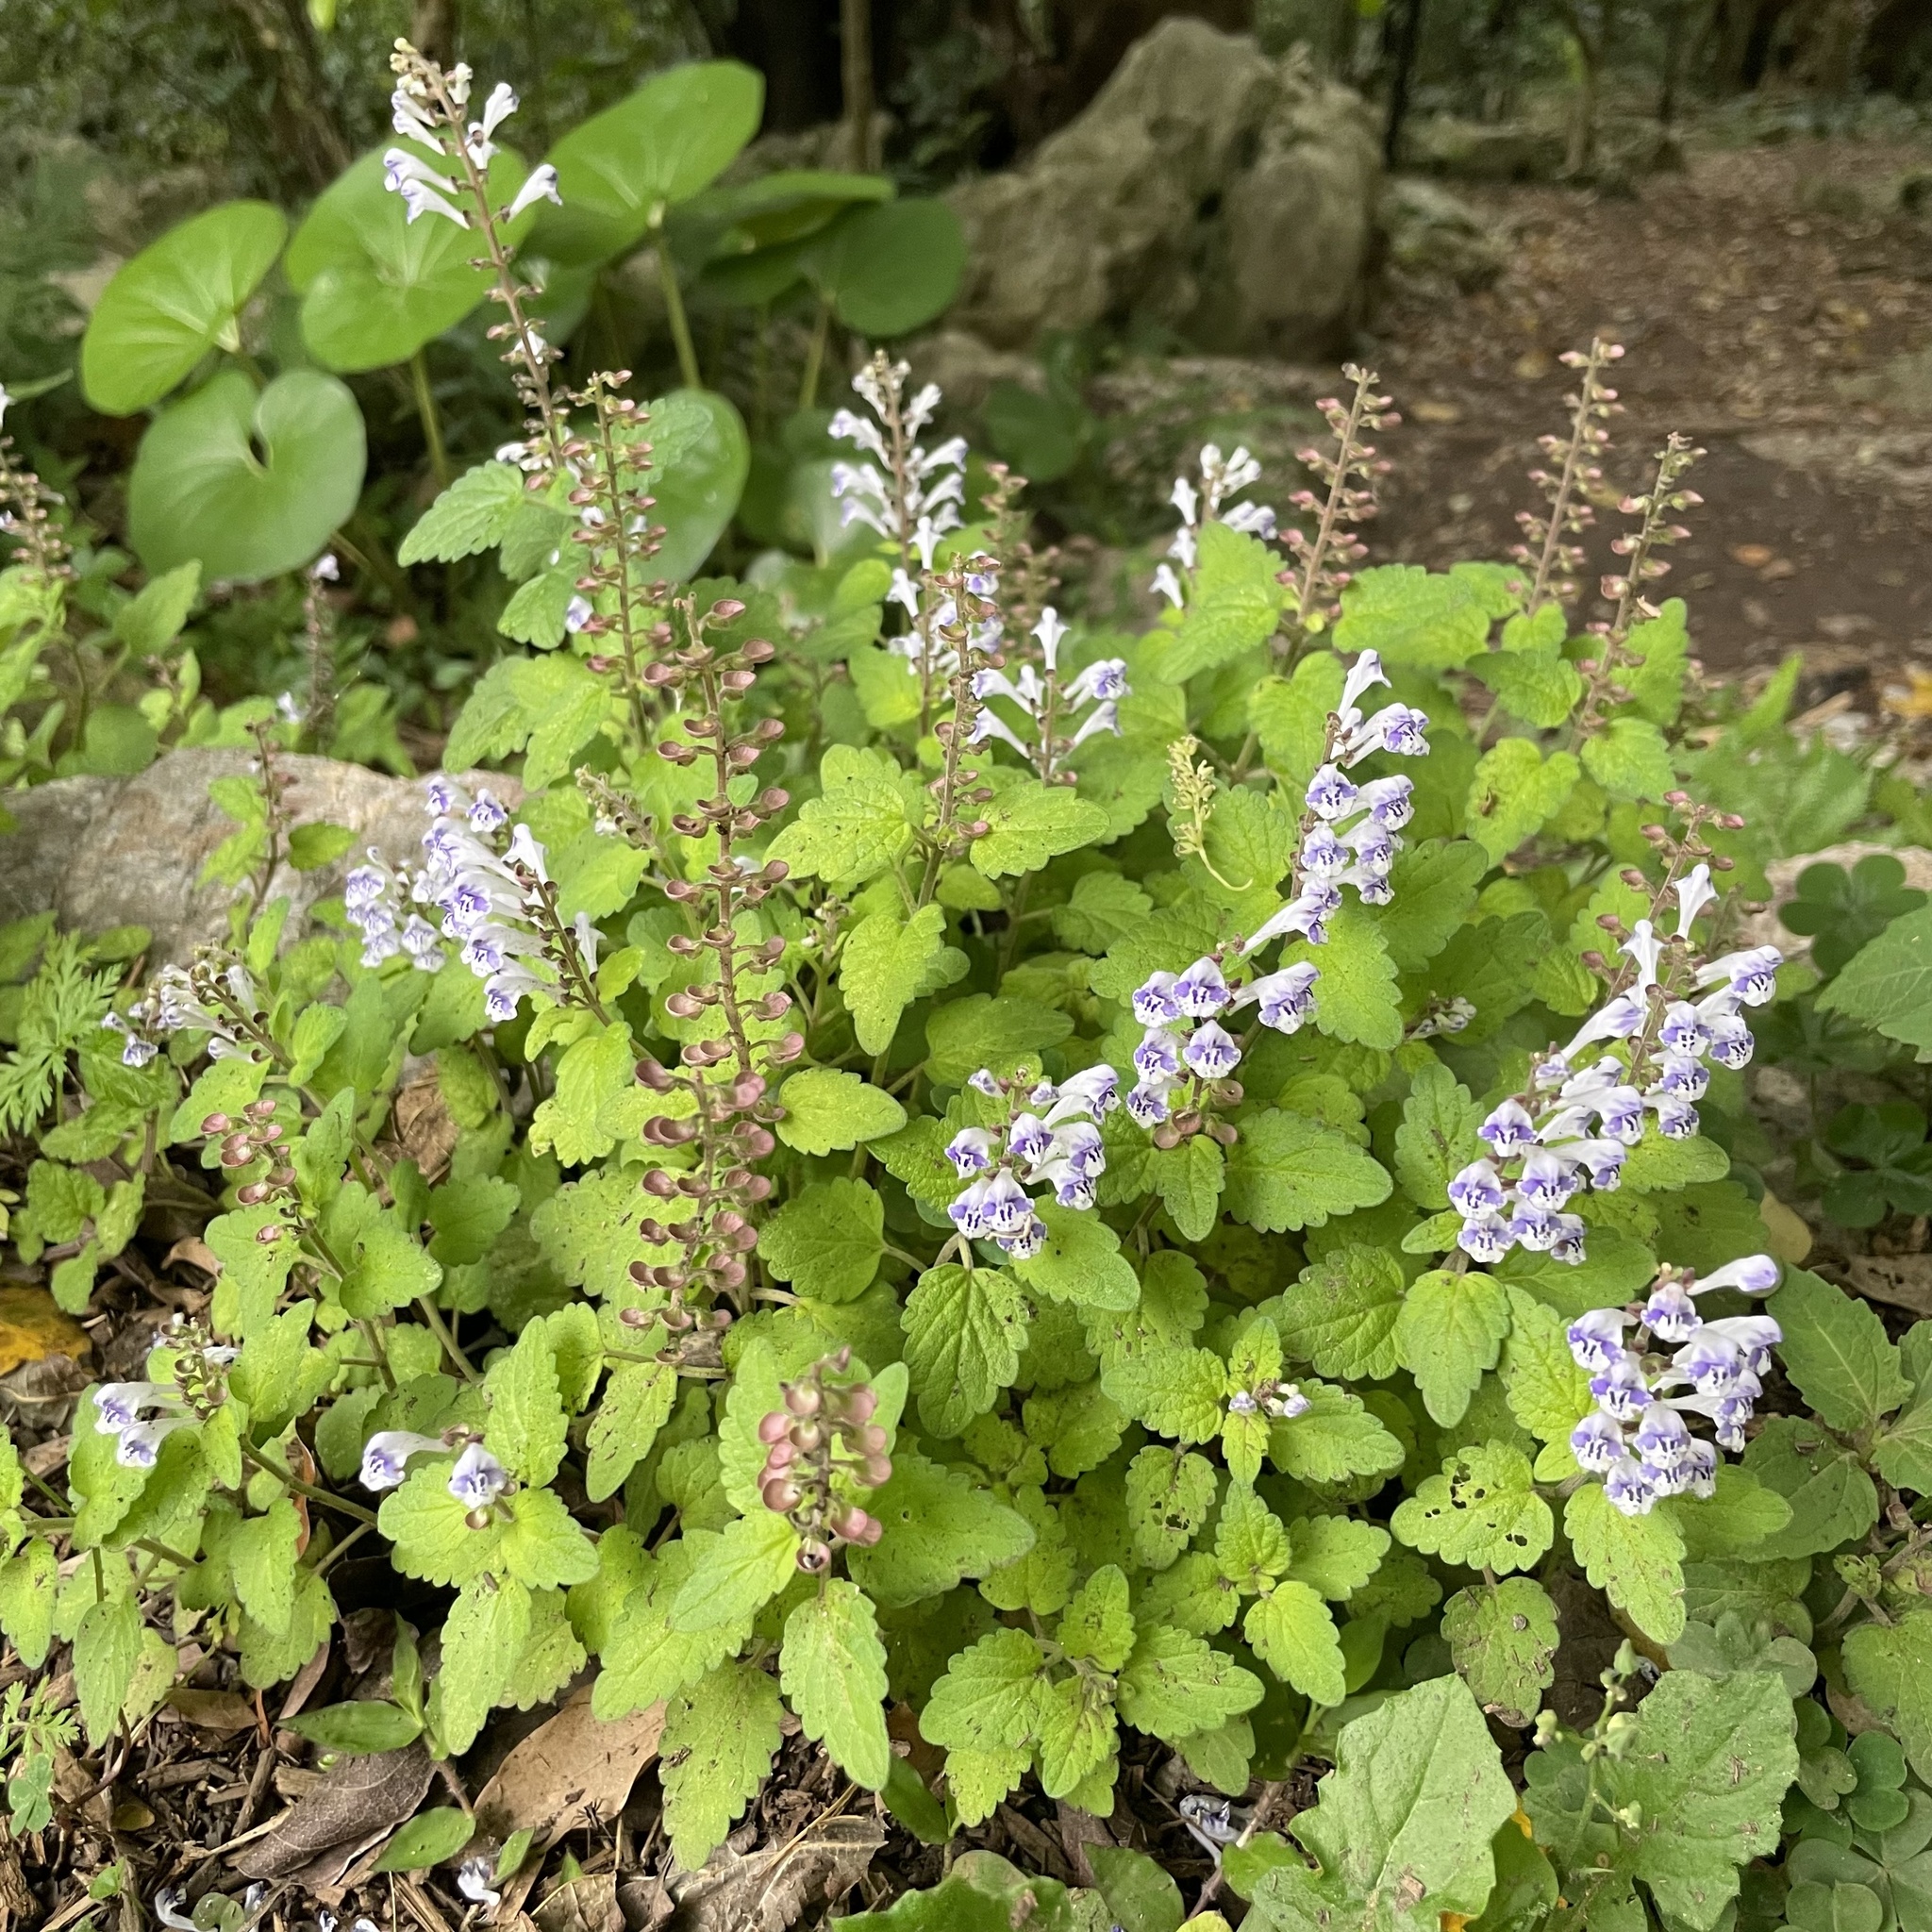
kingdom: Plantae
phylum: Tracheophyta
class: Magnoliopsida
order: Lamiales
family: Lamiaceae
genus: Scutellaria
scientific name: Scutellaria rubropunctata
